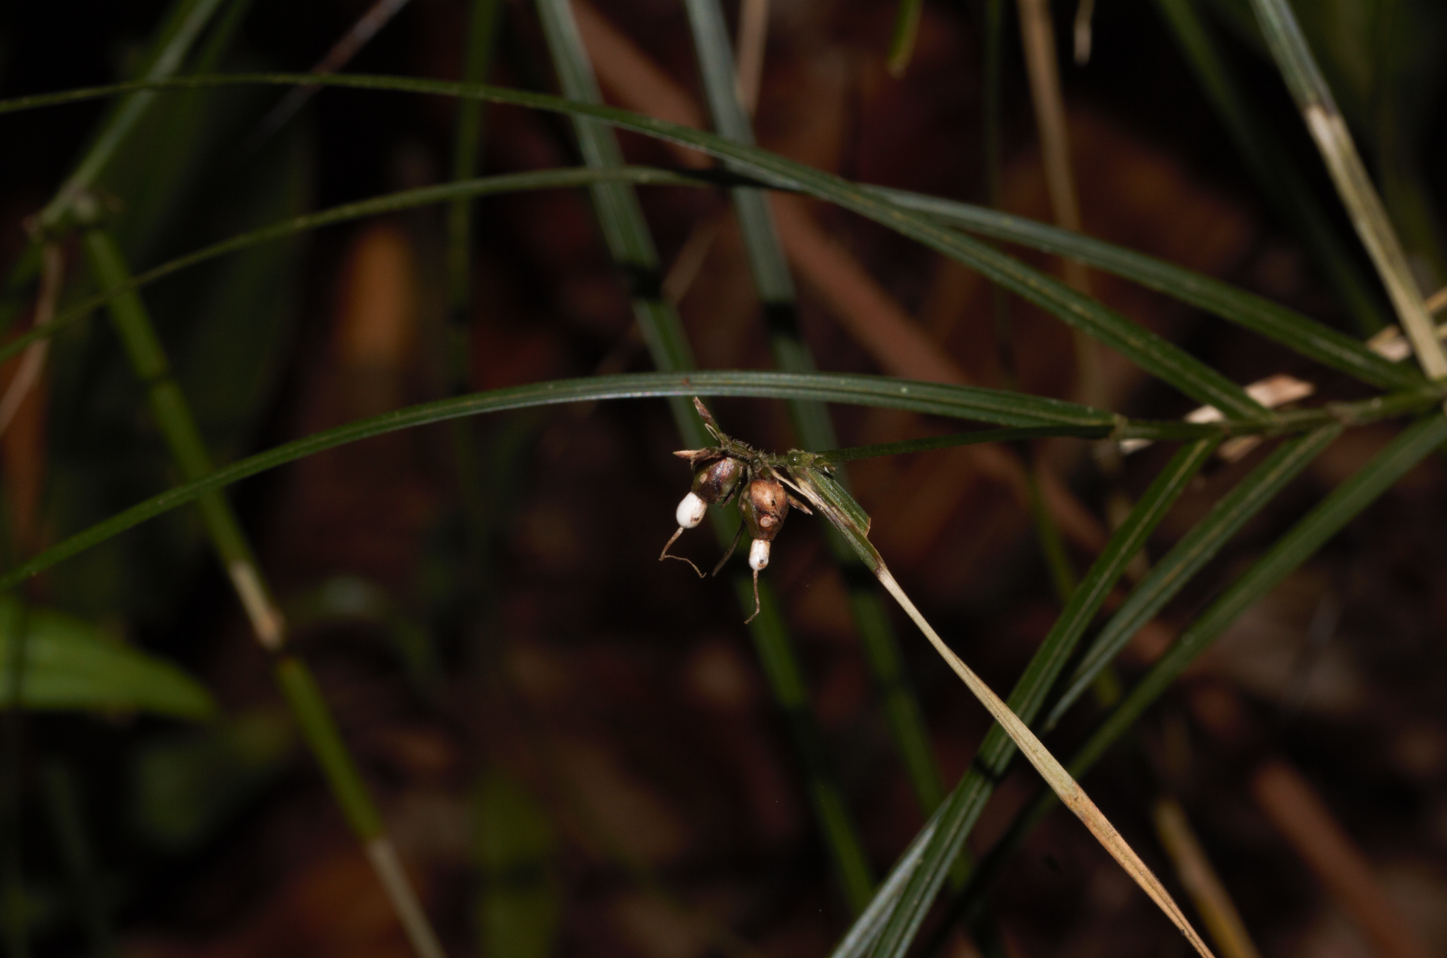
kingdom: Plantae
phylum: Tracheophyta
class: Liliopsida
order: Poales
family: Cyperaceae
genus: Scleria
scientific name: Scleria secans
